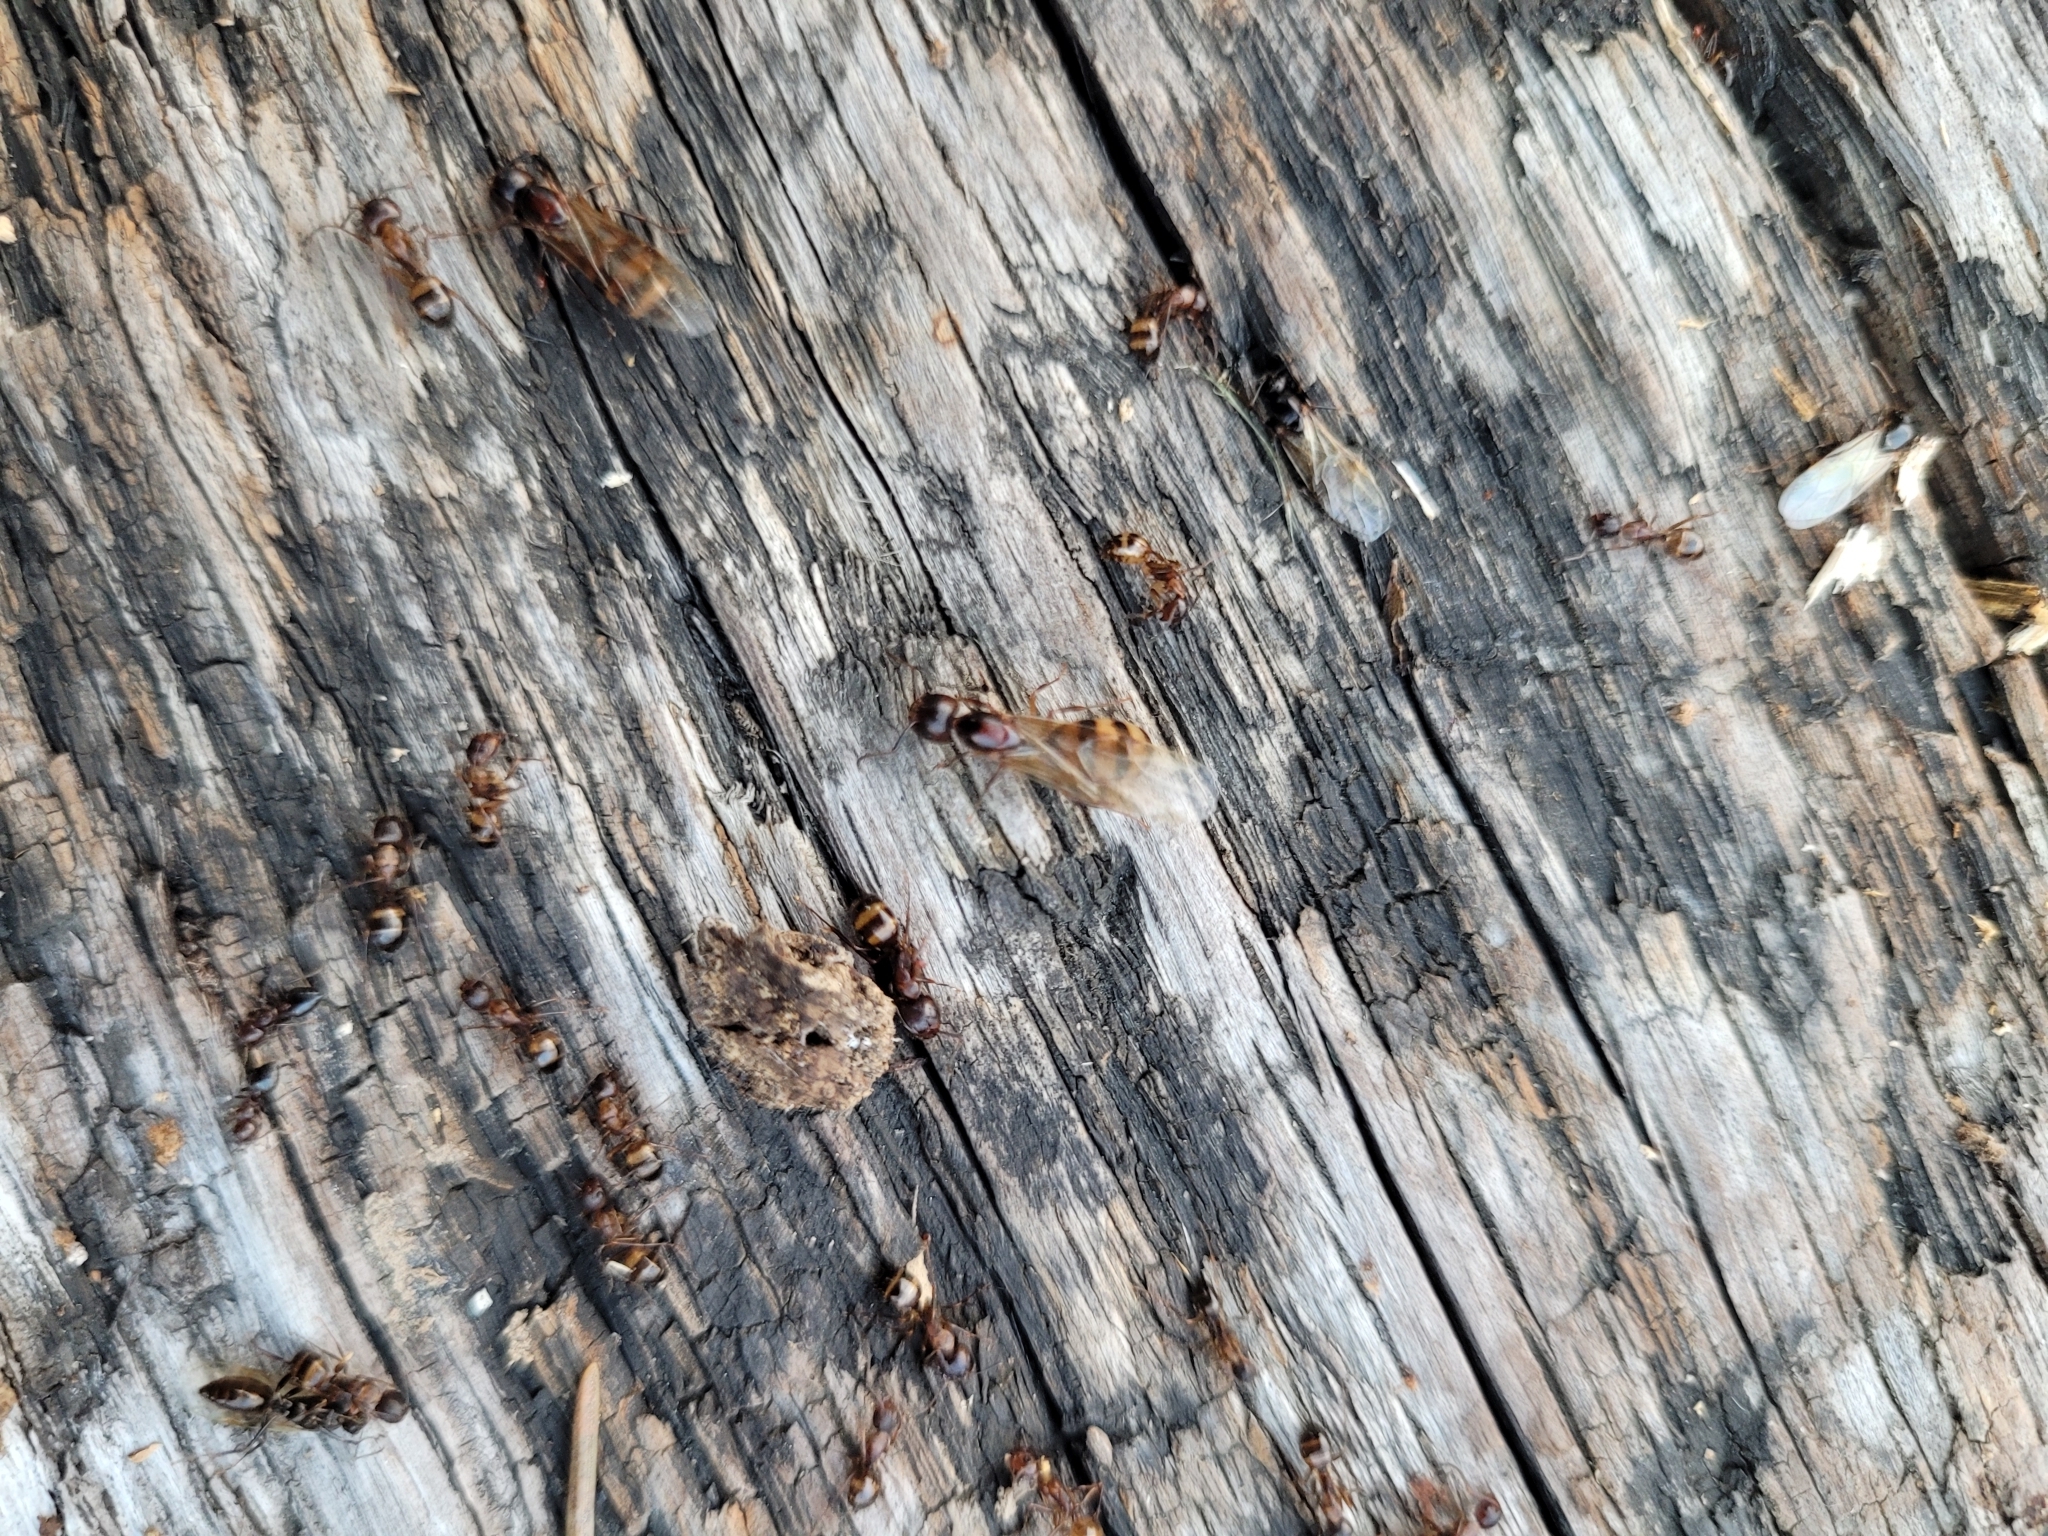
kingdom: Animalia
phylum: Arthropoda
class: Insecta
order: Hymenoptera
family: Formicidae
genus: Camponotus
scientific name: Camponotus subbarbatus
